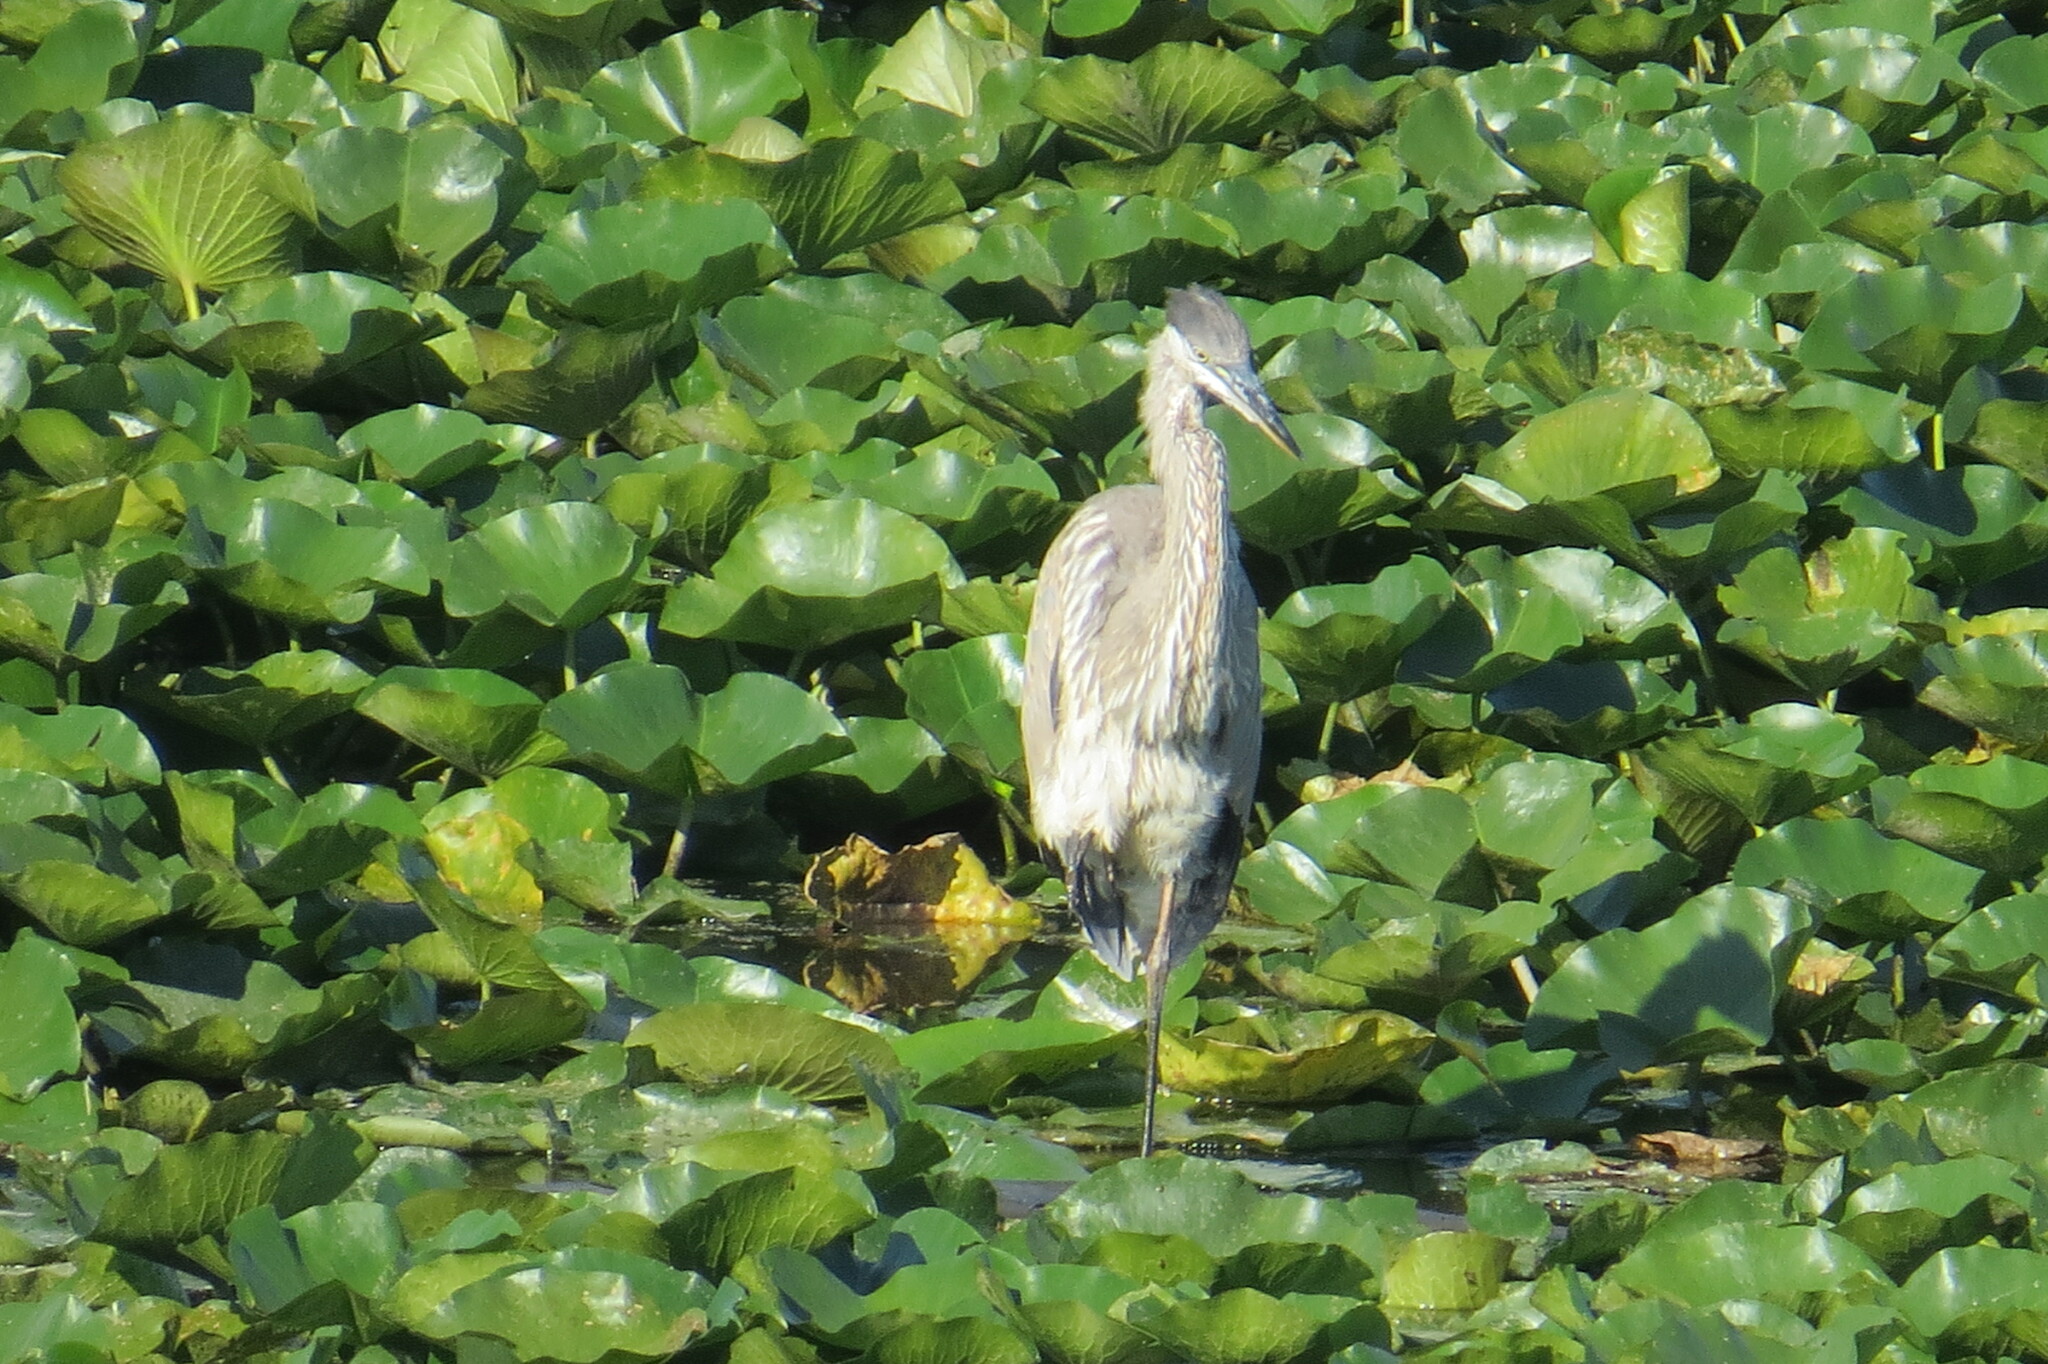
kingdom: Animalia
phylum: Chordata
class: Aves
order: Pelecaniformes
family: Ardeidae
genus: Ardea
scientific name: Ardea herodias
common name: Great blue heron
